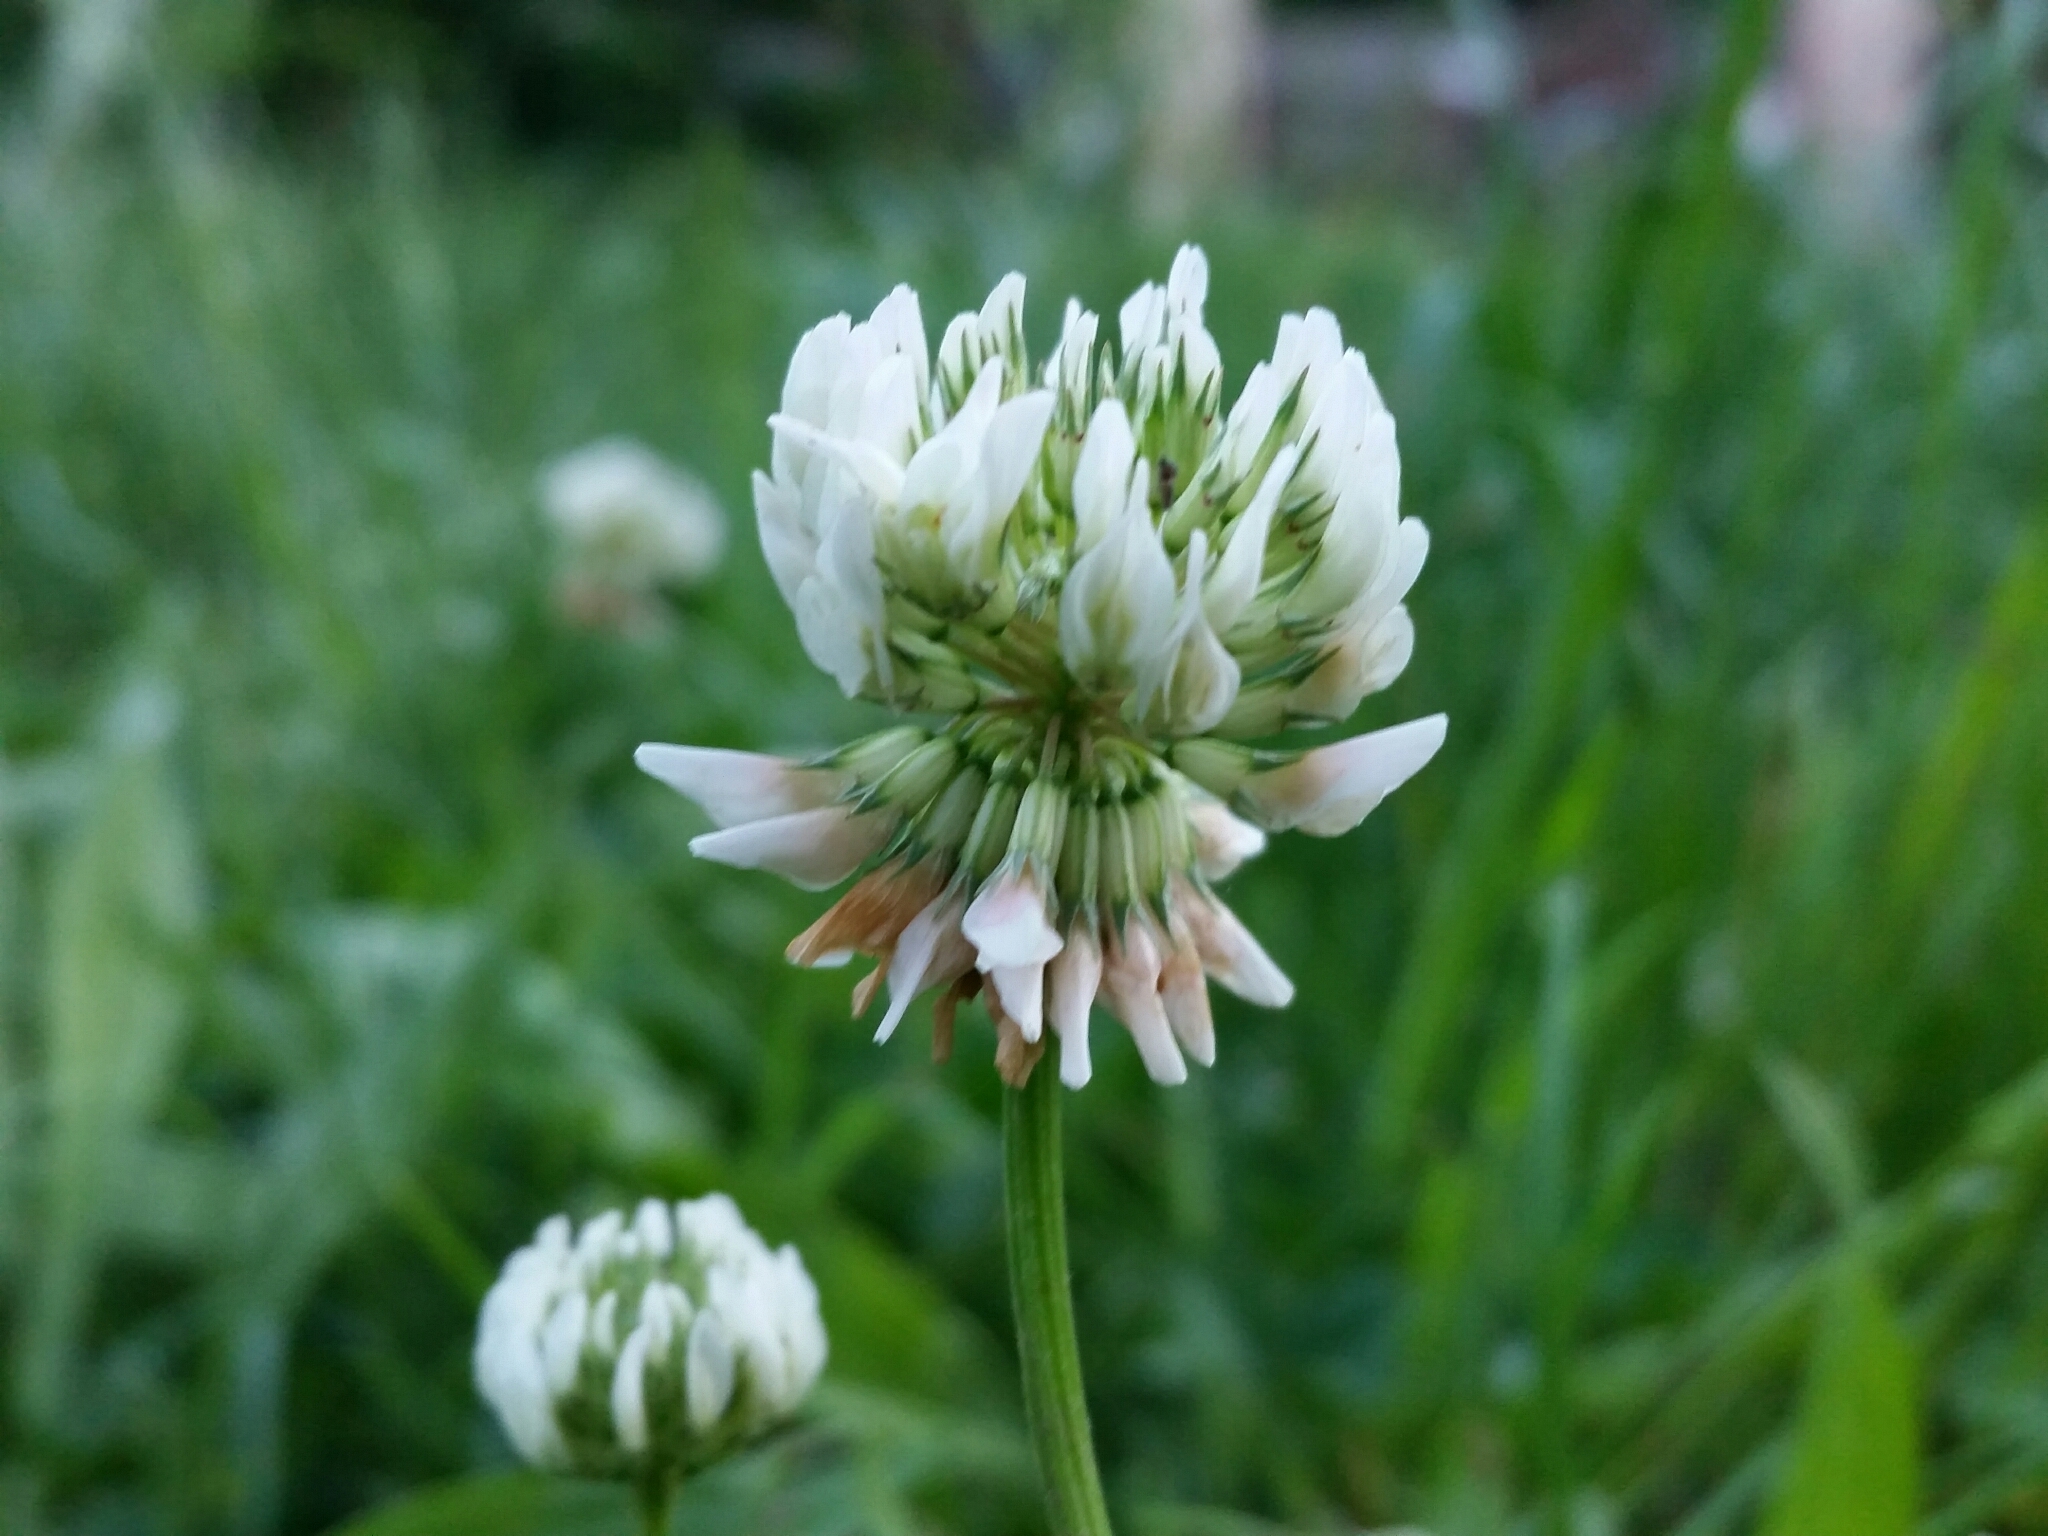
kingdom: Plantae
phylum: Tracheophyta
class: Magnoliopsida
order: Fabales
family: Fabaceae
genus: Trifolium
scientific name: Trifolium repens
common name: White clover
